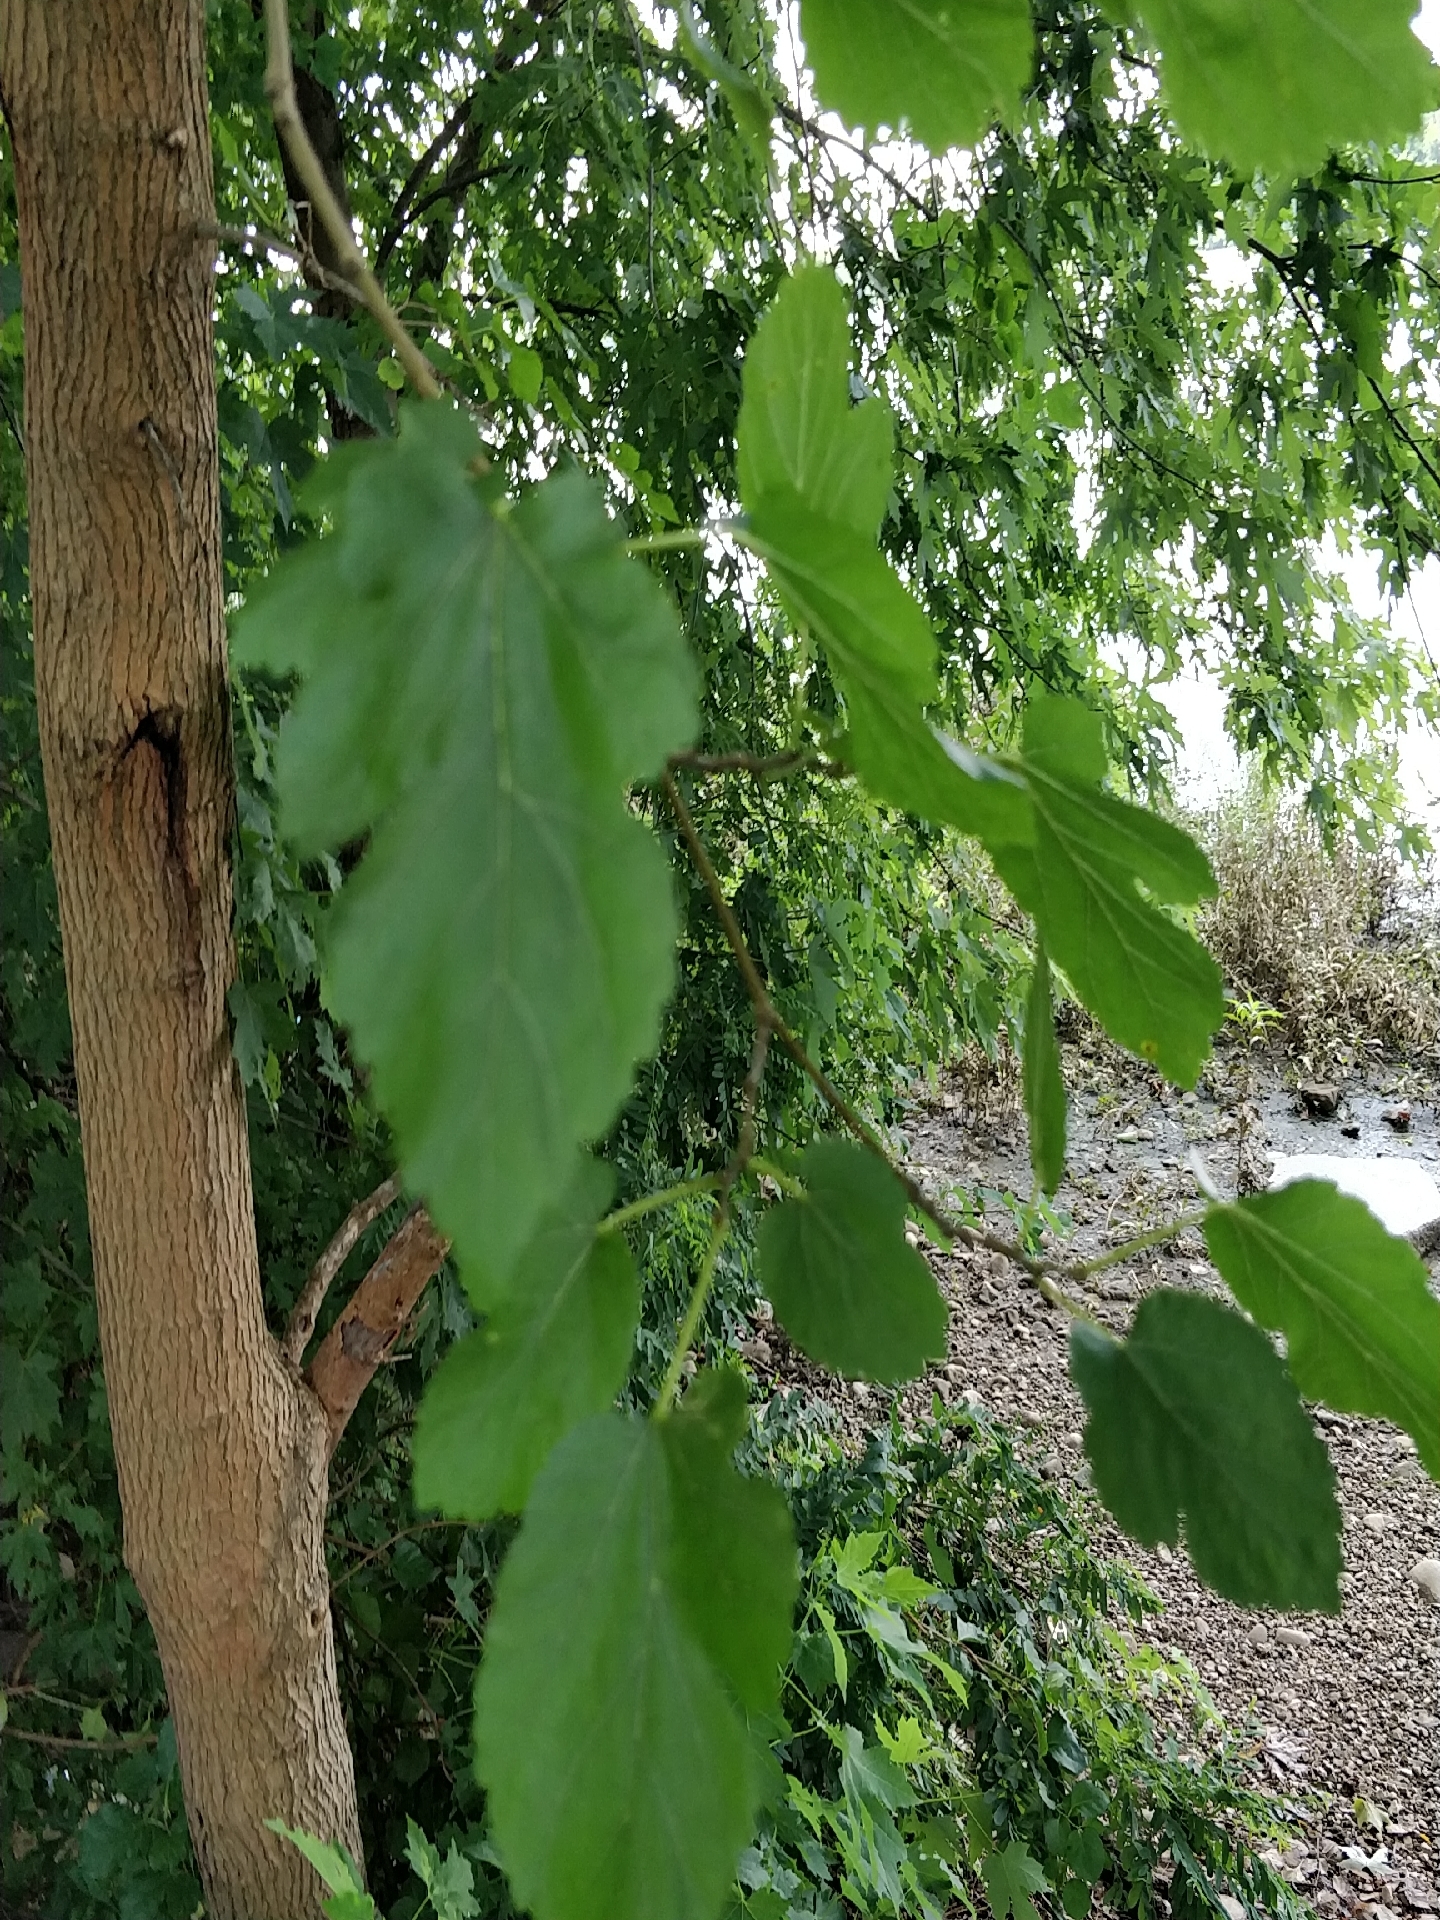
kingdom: Plantae
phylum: Tracheophyta
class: Magnoliopsida
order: Rosales
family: Moraceae
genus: Morus
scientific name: Morus alba
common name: White mulberry
